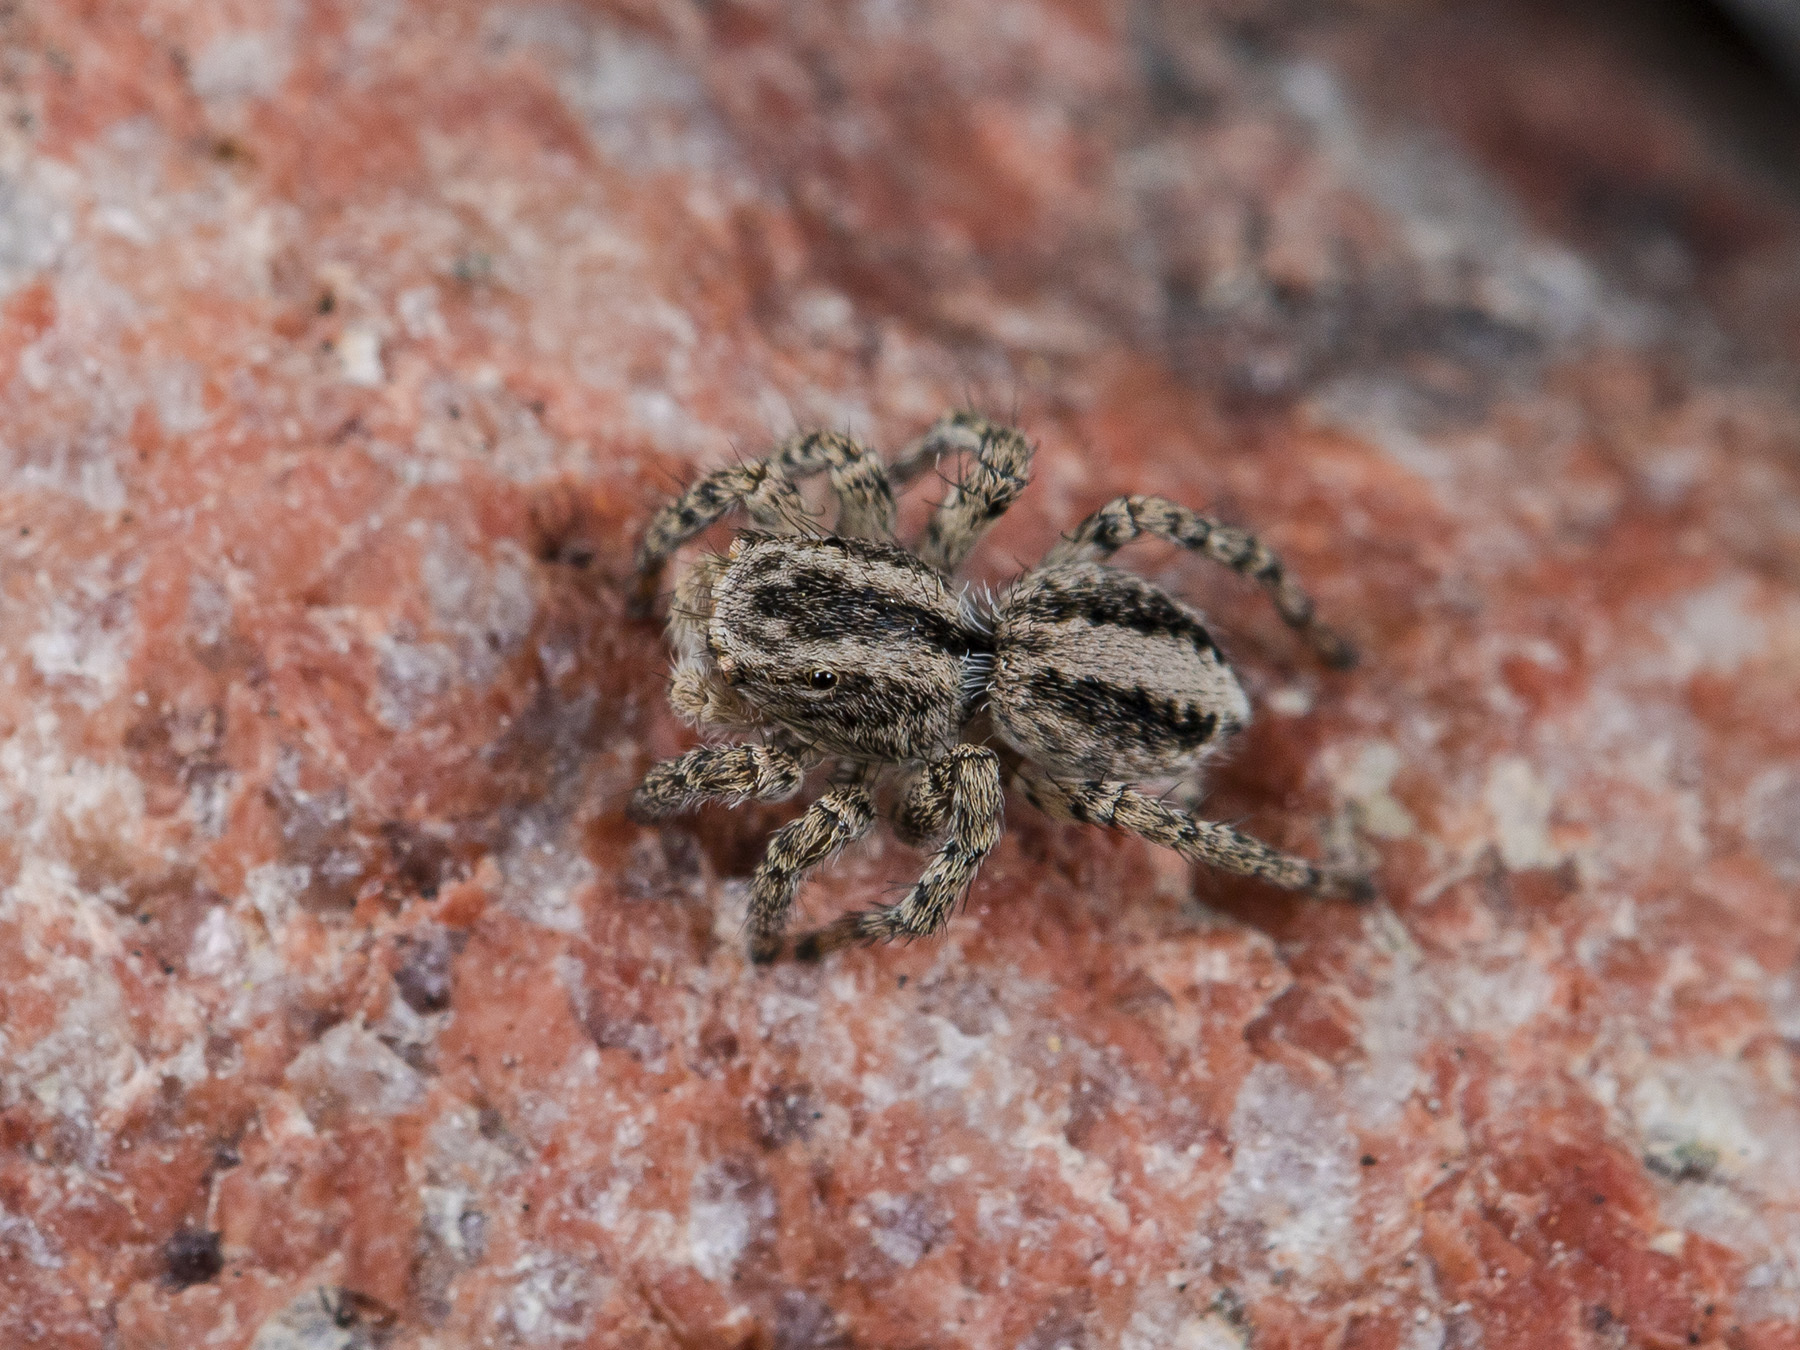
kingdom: Animalia
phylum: Arthropoda
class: Arachnida
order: Araneae
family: Salticidae
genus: Aelurillus
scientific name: Aelurillus v-insignitus
